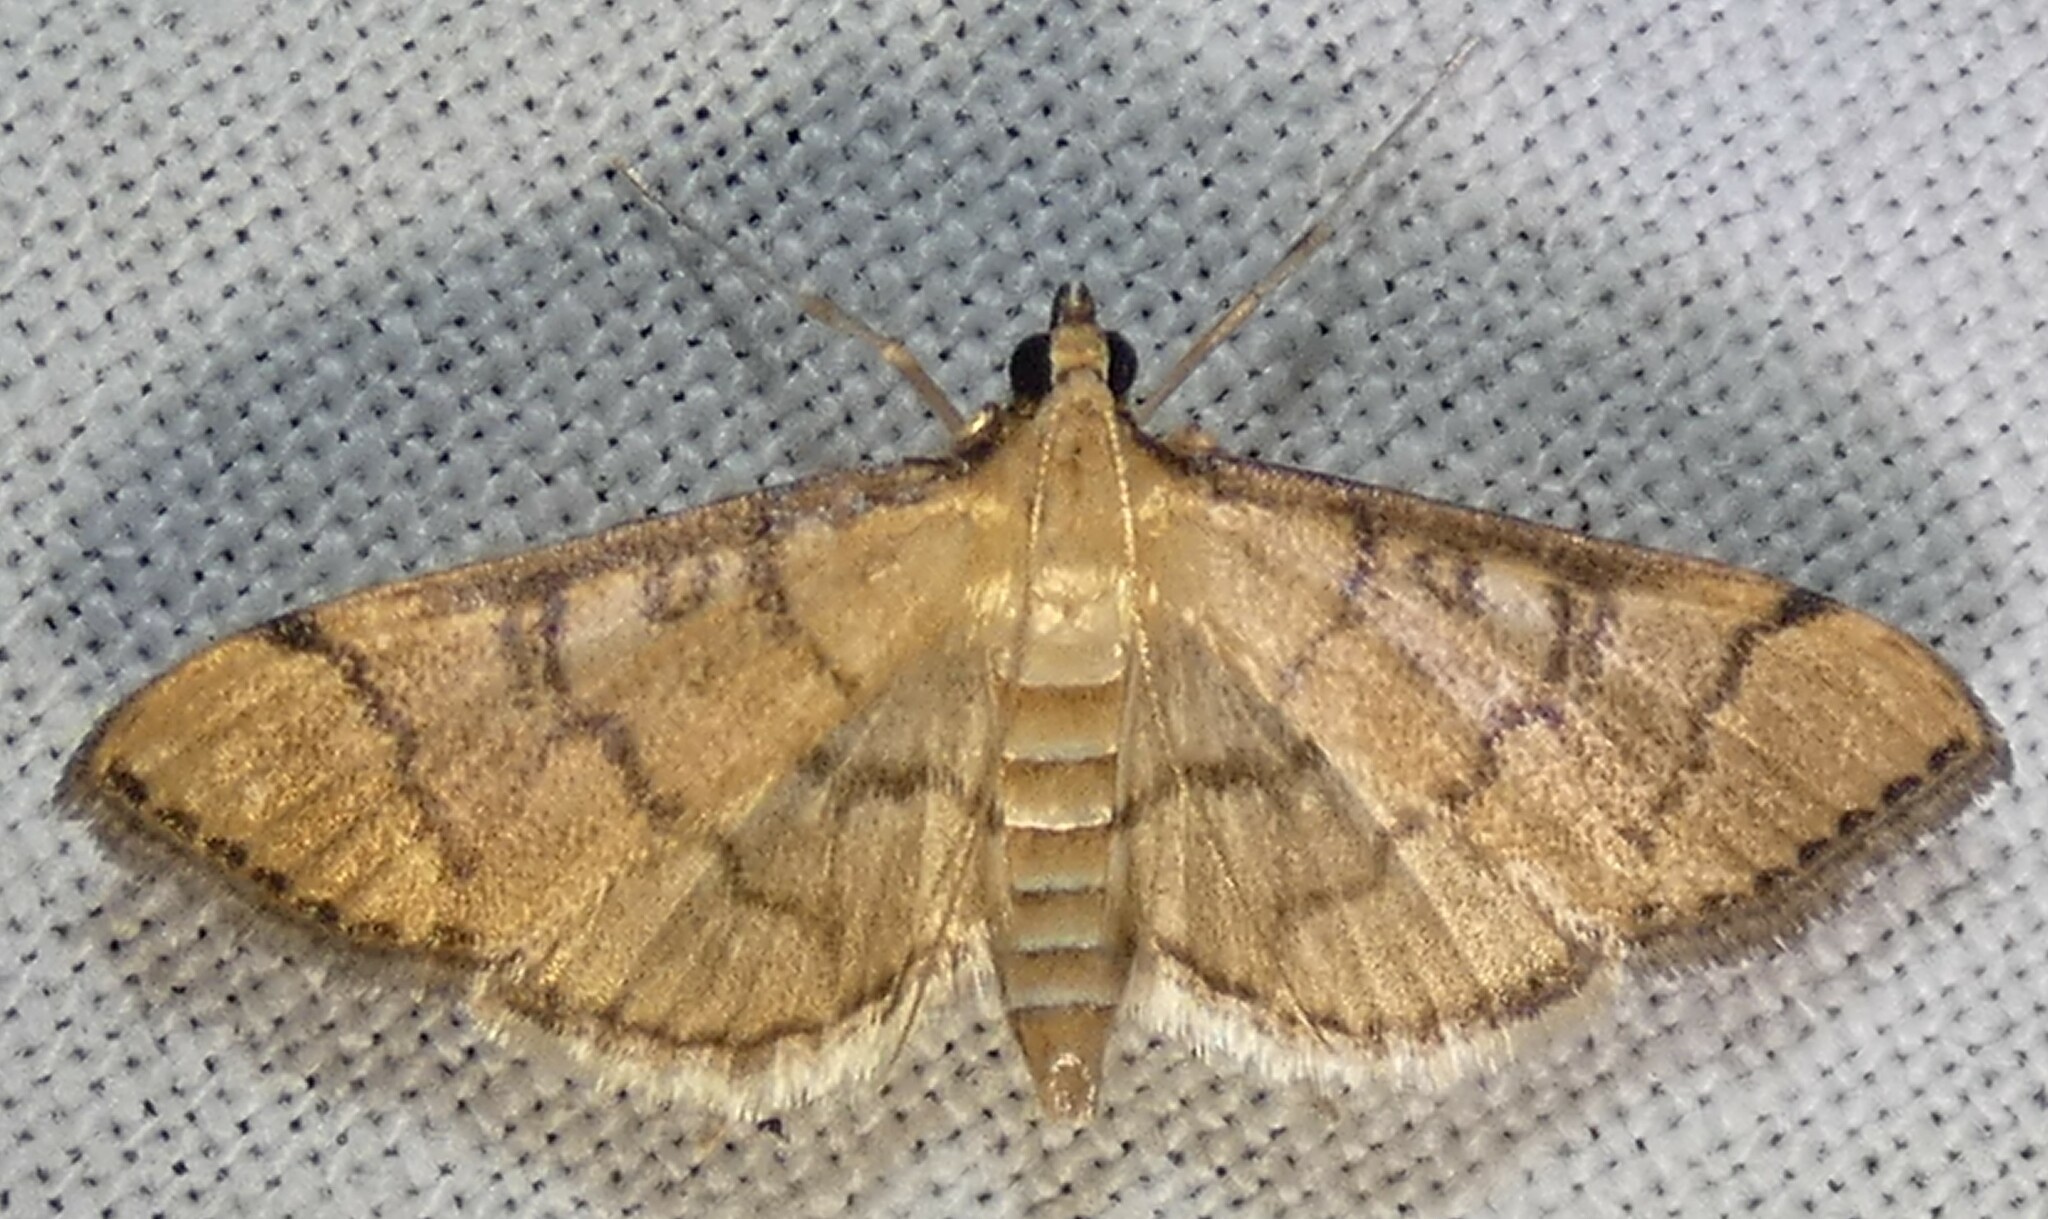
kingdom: Animalia
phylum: Arthropoda
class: Insecta
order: Lepidoptera
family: Crambidae
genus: Lamprosema
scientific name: Lamprosema Blepharomastix ranalis
